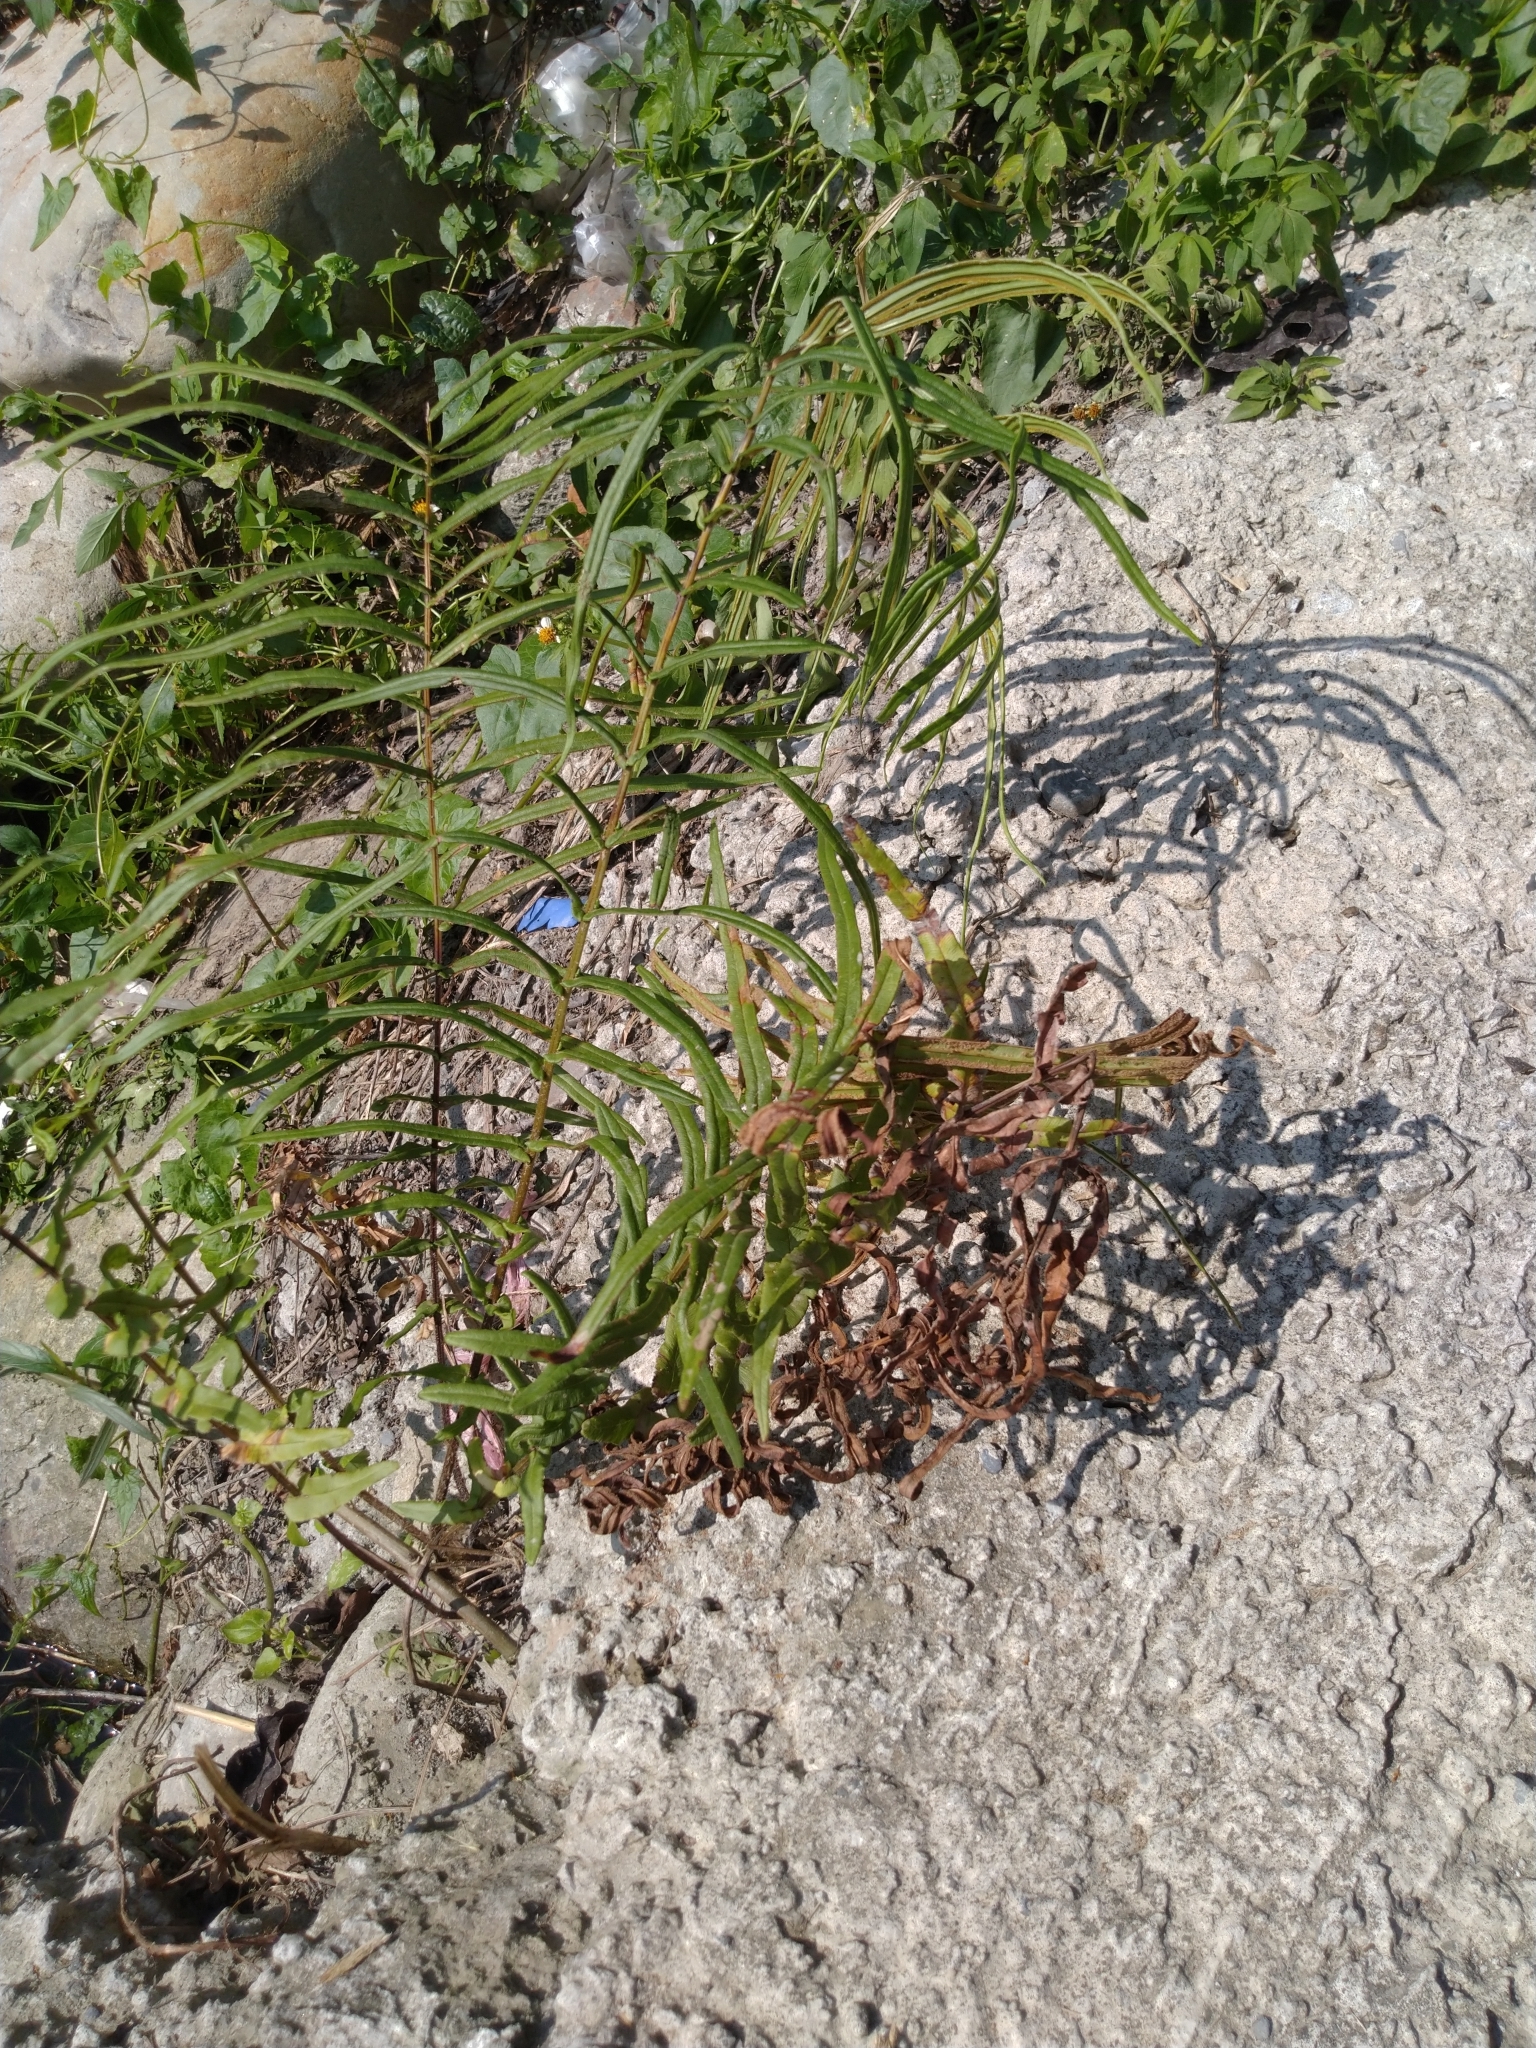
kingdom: Plantae
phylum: Tracheophyta
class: Polypodiopsida
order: Polypodiales
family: Pteridaceae
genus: Pteris
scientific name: Pteris vittata
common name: Ladder brake
